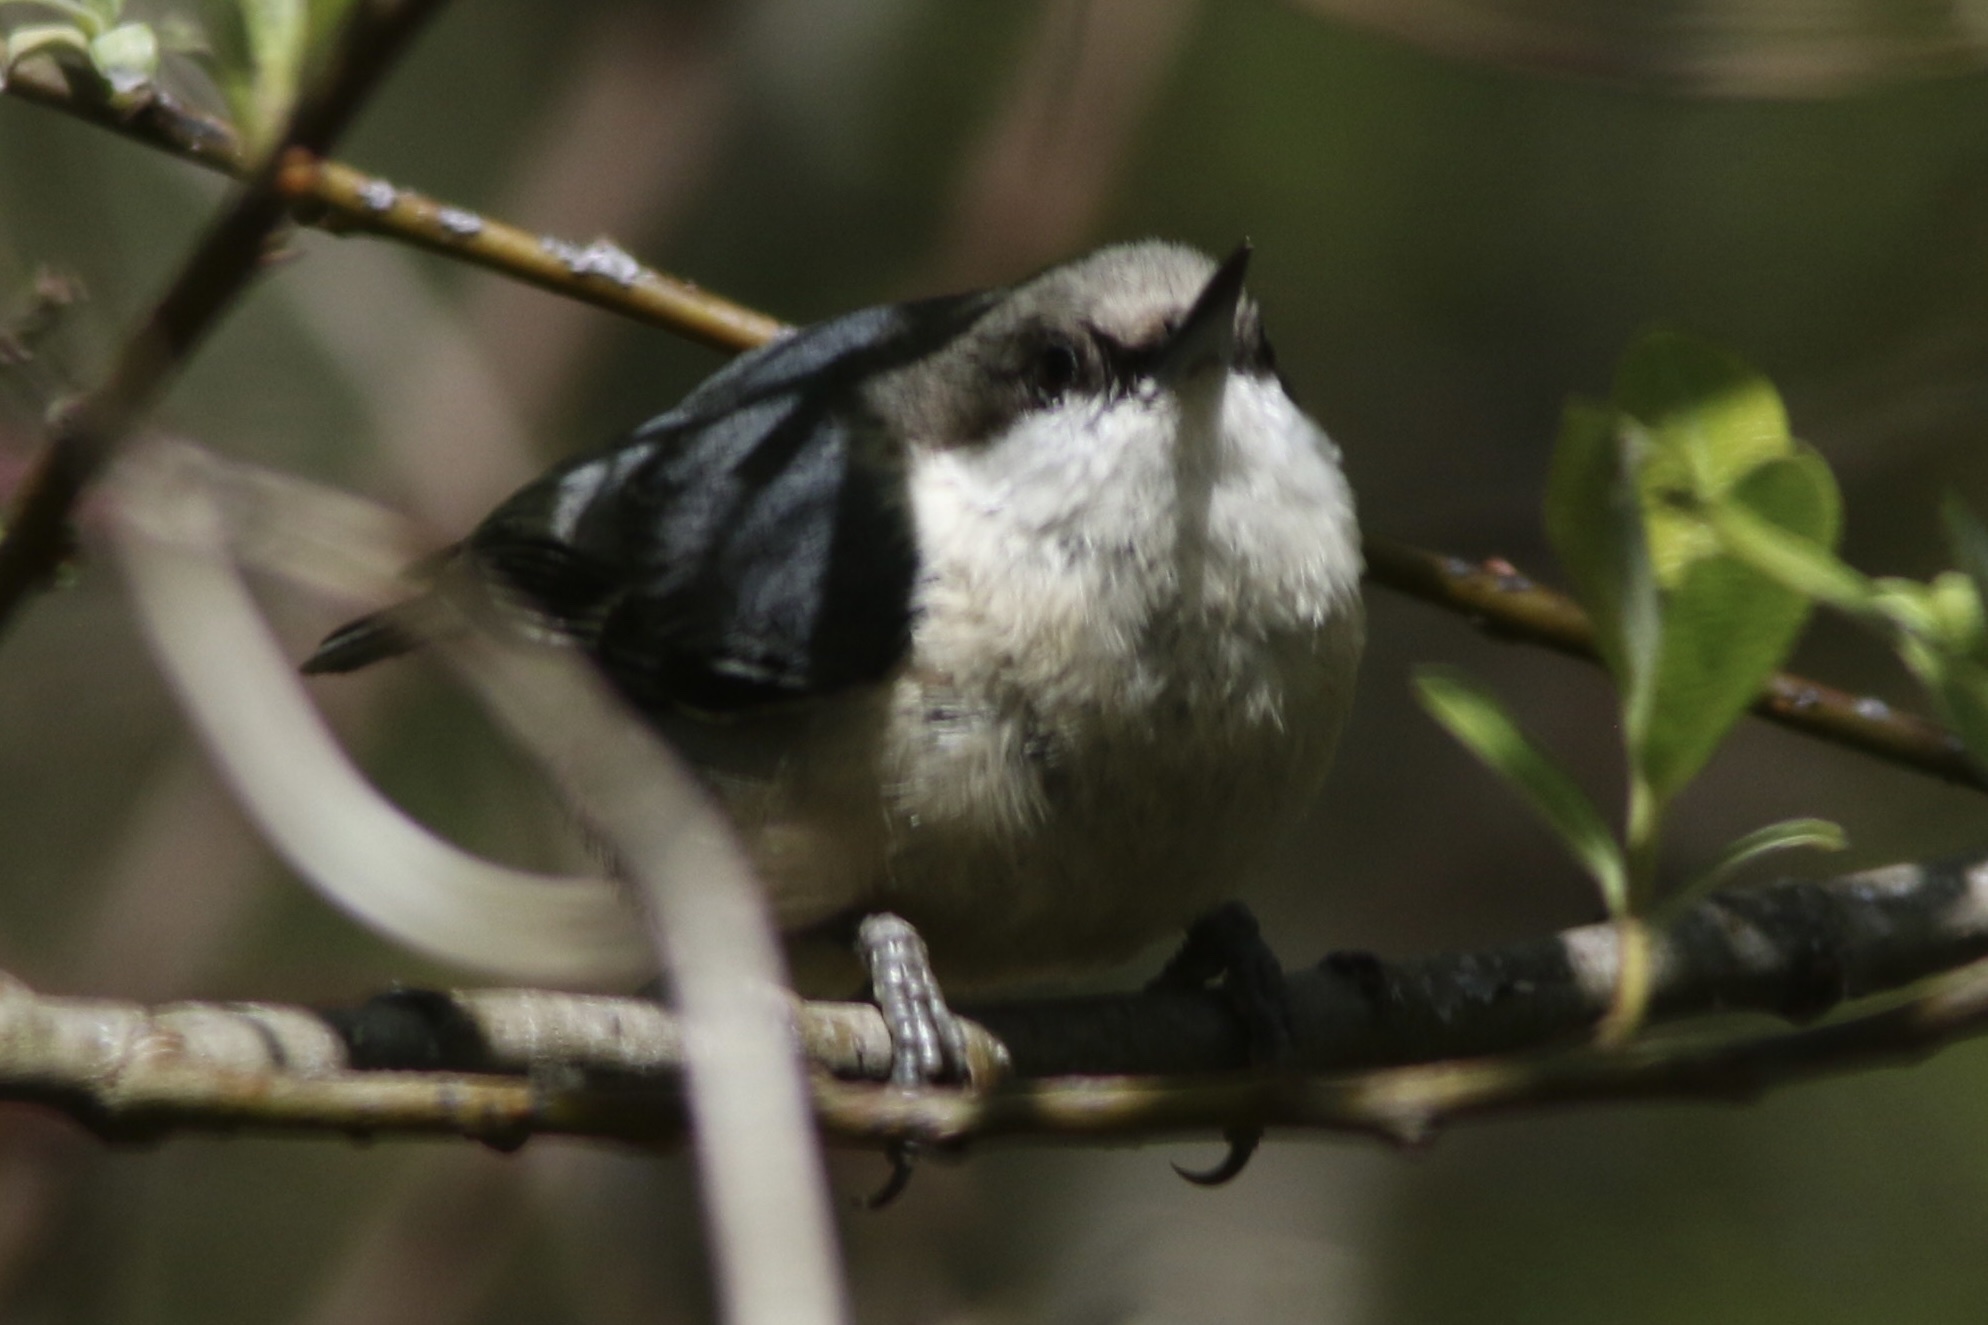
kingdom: Animalia
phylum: Chordata
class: Aves
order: Passeriformes
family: Sittidae
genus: Sitta
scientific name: Sitta pygmaea
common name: Pygmy nuthatch
